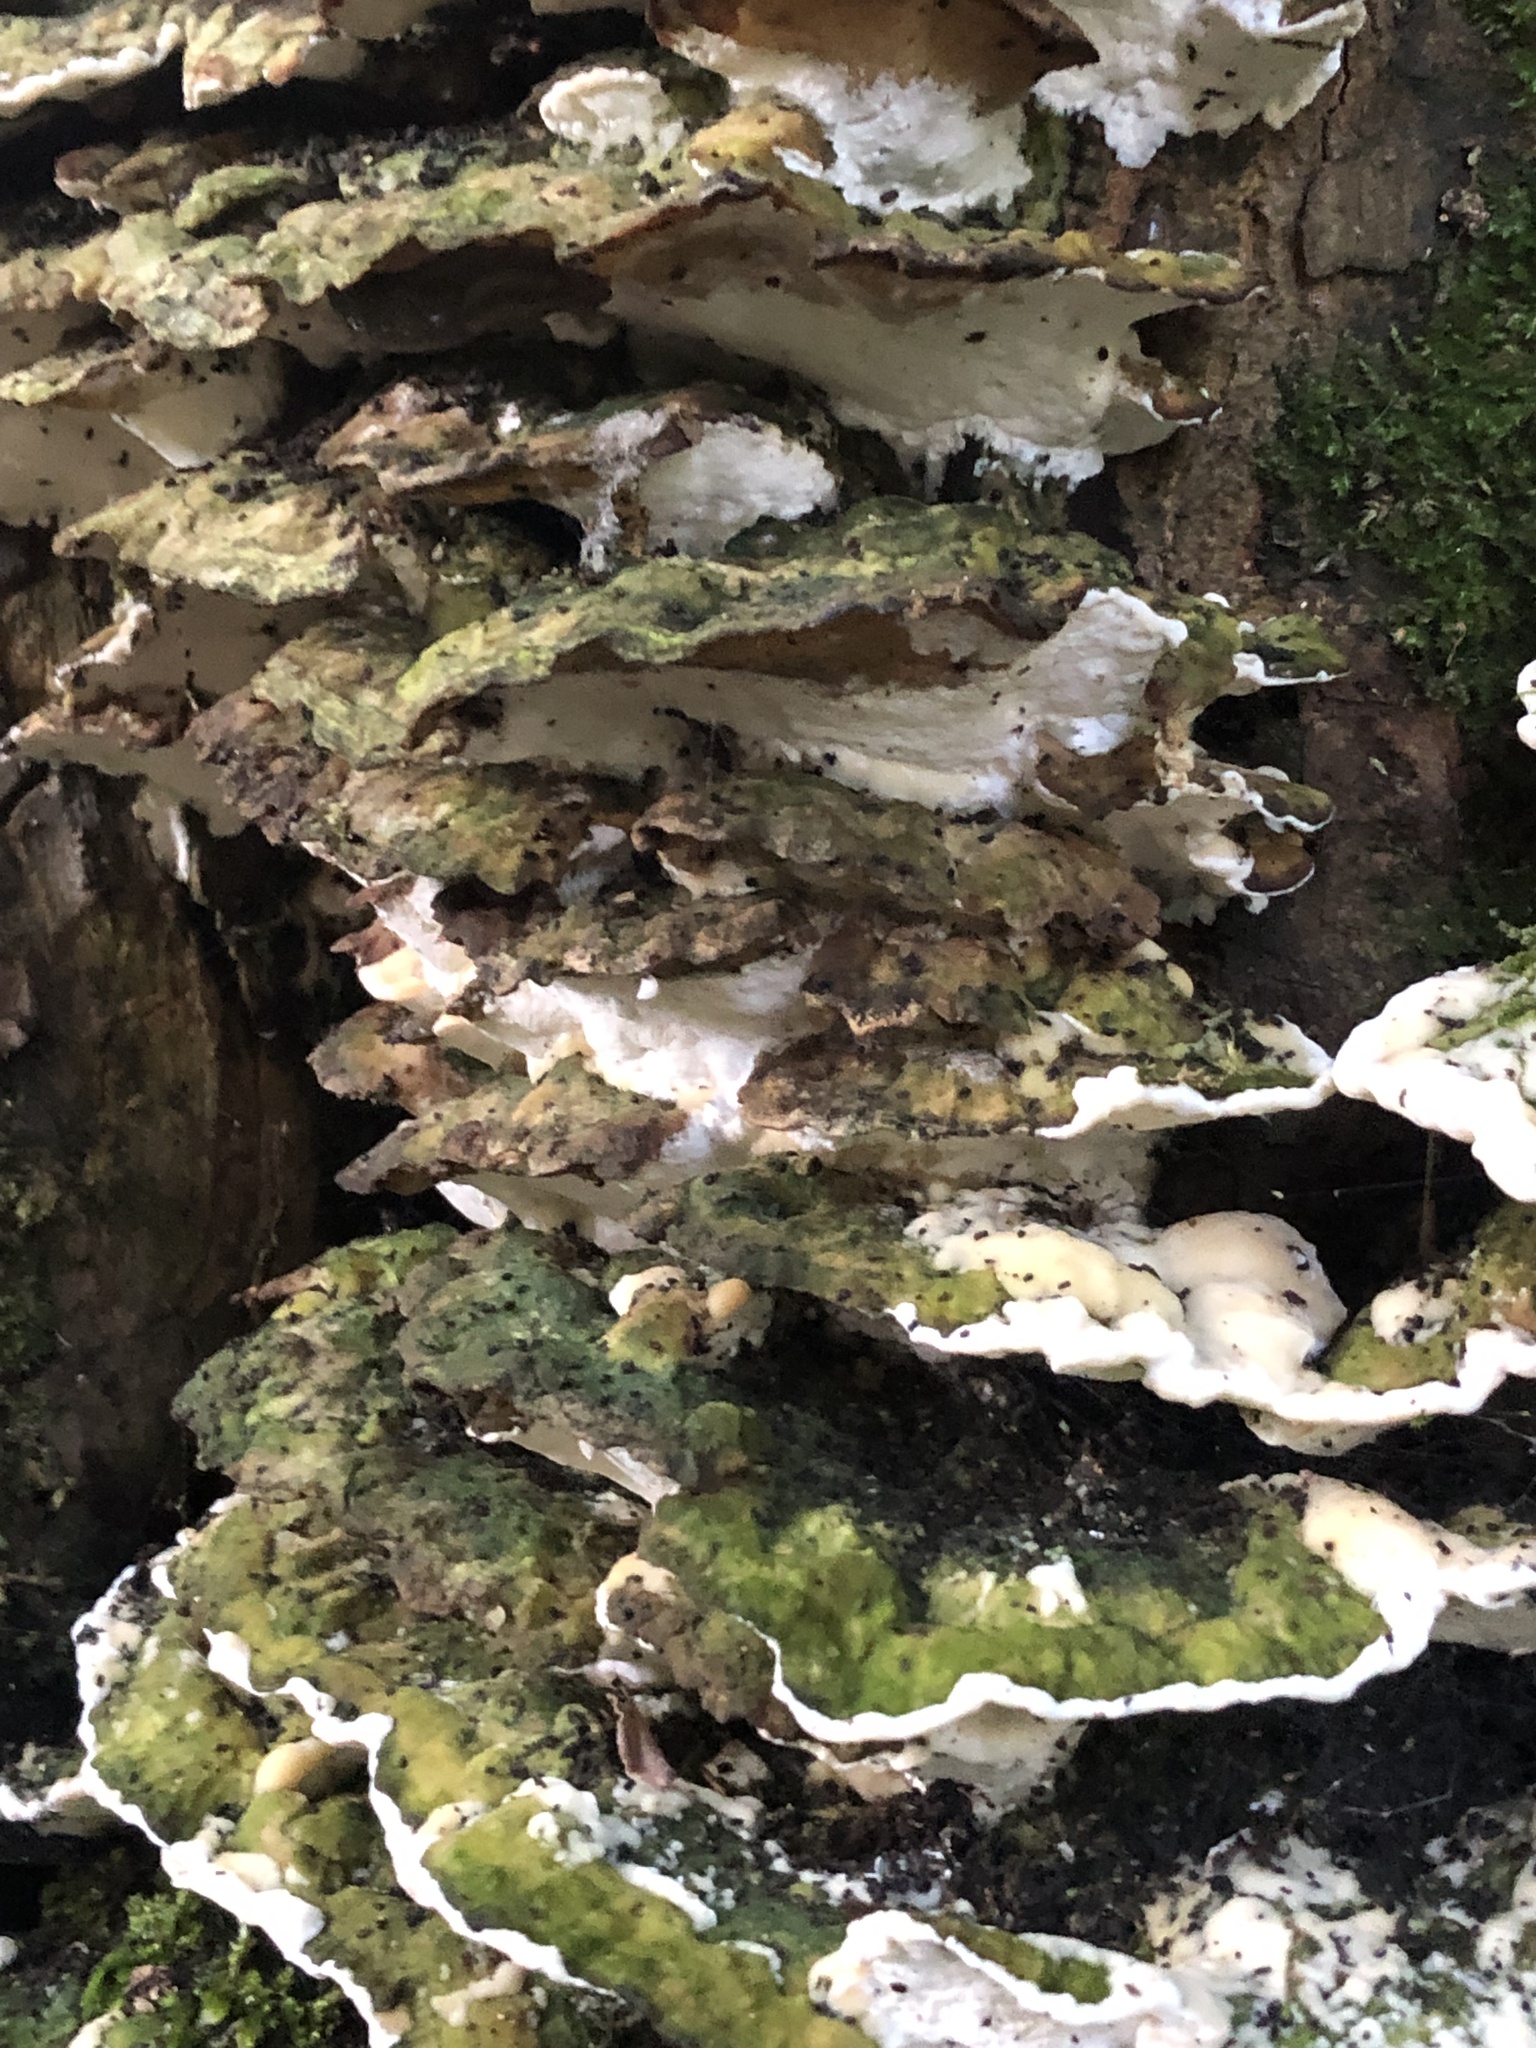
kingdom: Fungi
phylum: Basidiomycota
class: Agaricomycetes
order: Polyporales
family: Polyporaceae
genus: Trametes
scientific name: Trametes gibbosa
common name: Lumpy bracket
